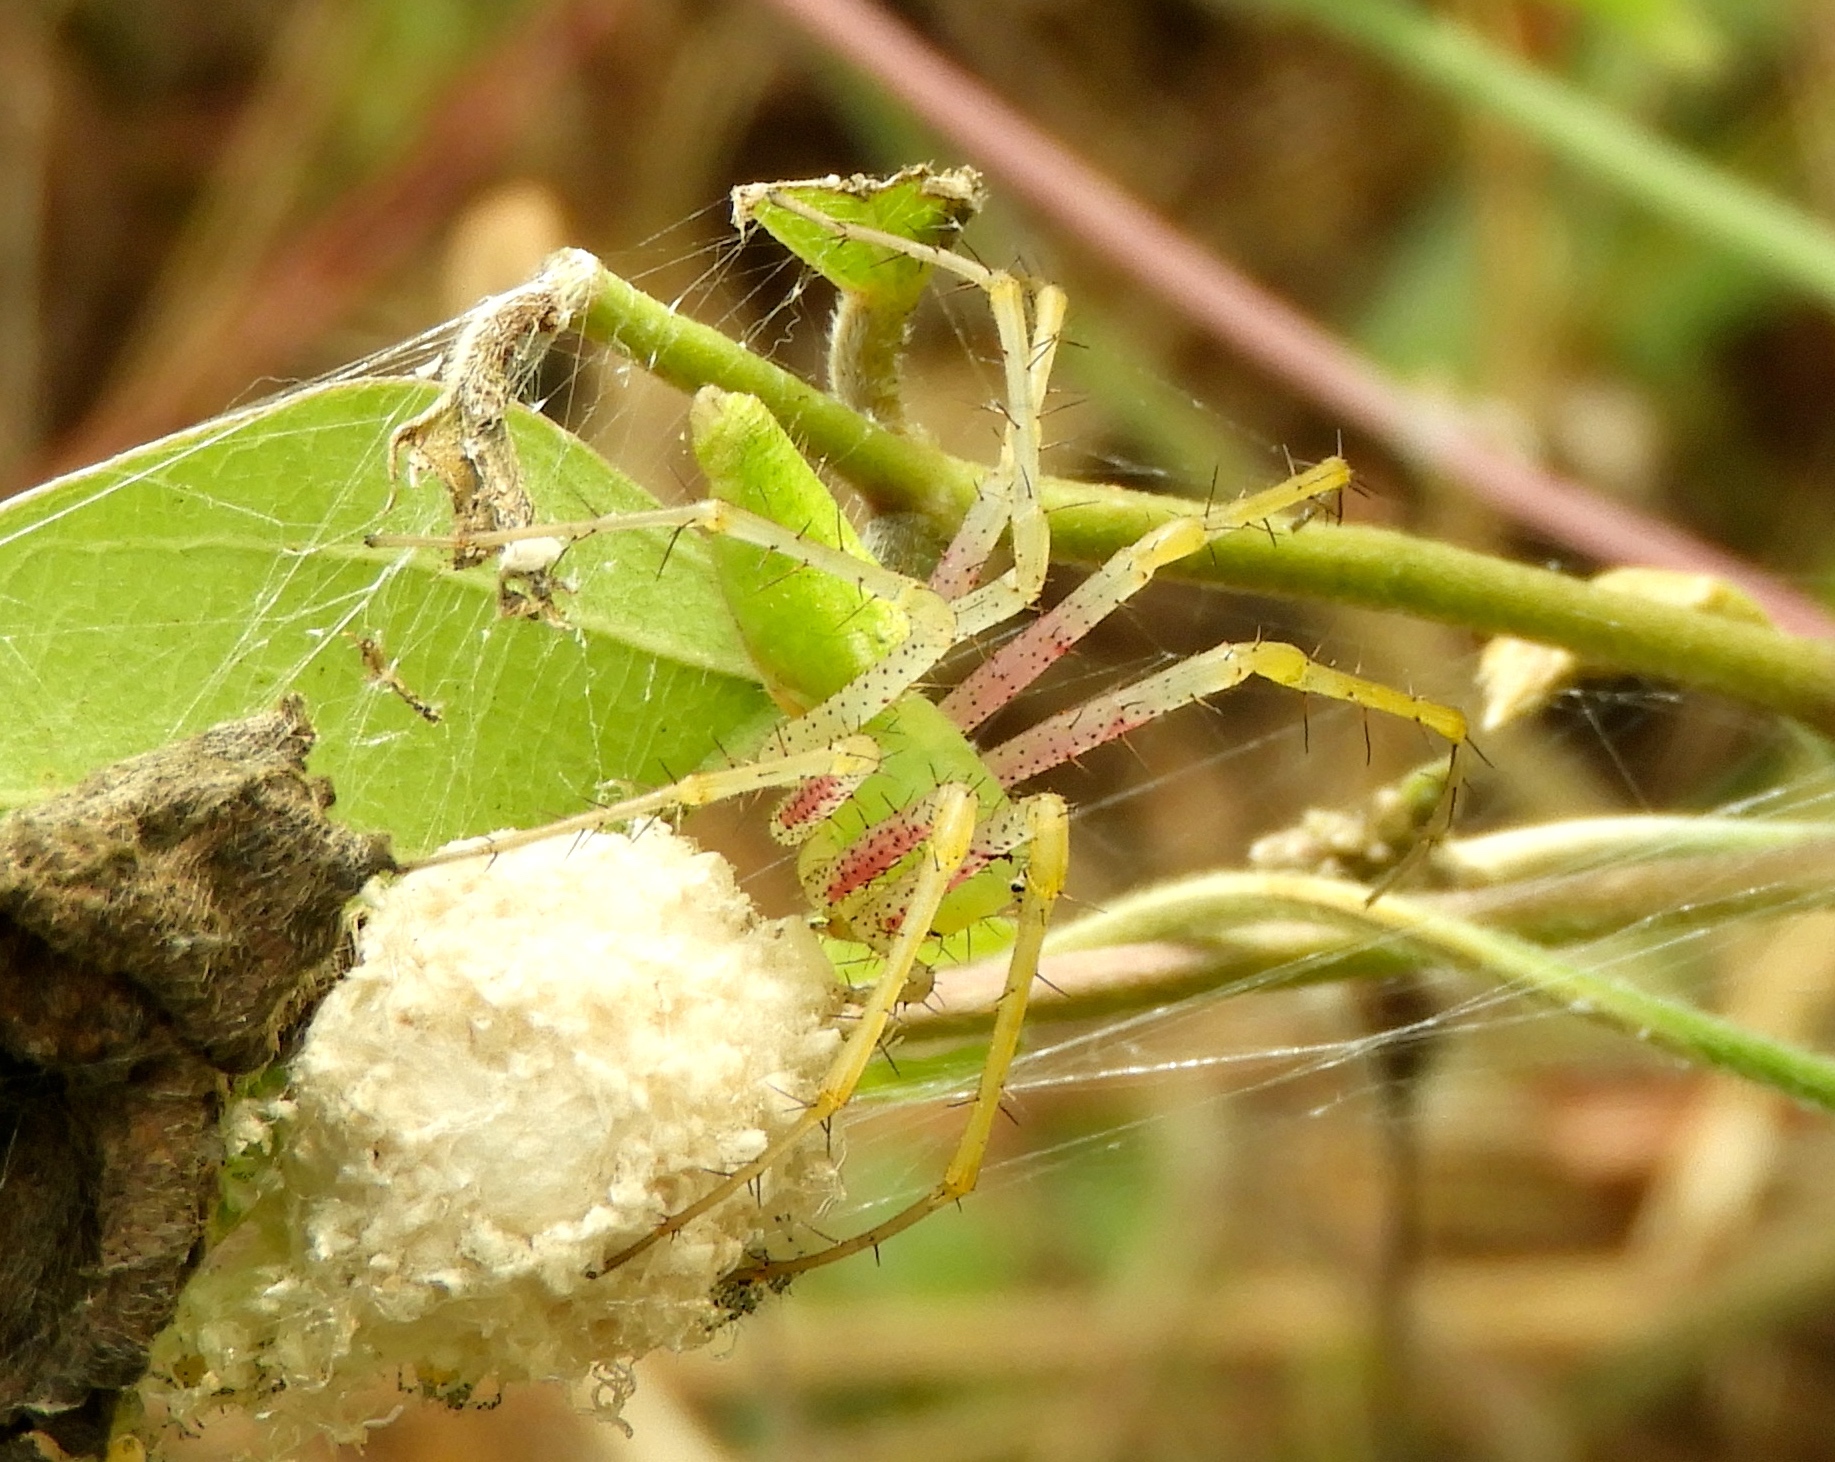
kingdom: Animalia
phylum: Arthropoda
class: Arachnida
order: Araneae
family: Oxyopidae
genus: Peucetia
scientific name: Peucetia longipalpis
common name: Lynx spiders
